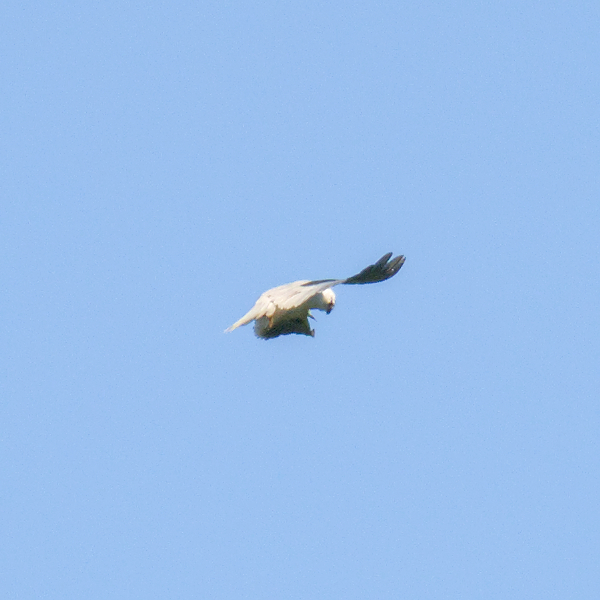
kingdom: Animalia
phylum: Chordata
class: Aves
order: Accipitriformes
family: Accipitridae
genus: Elanus
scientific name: Elanus axillaris
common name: Black-shouldered kite
